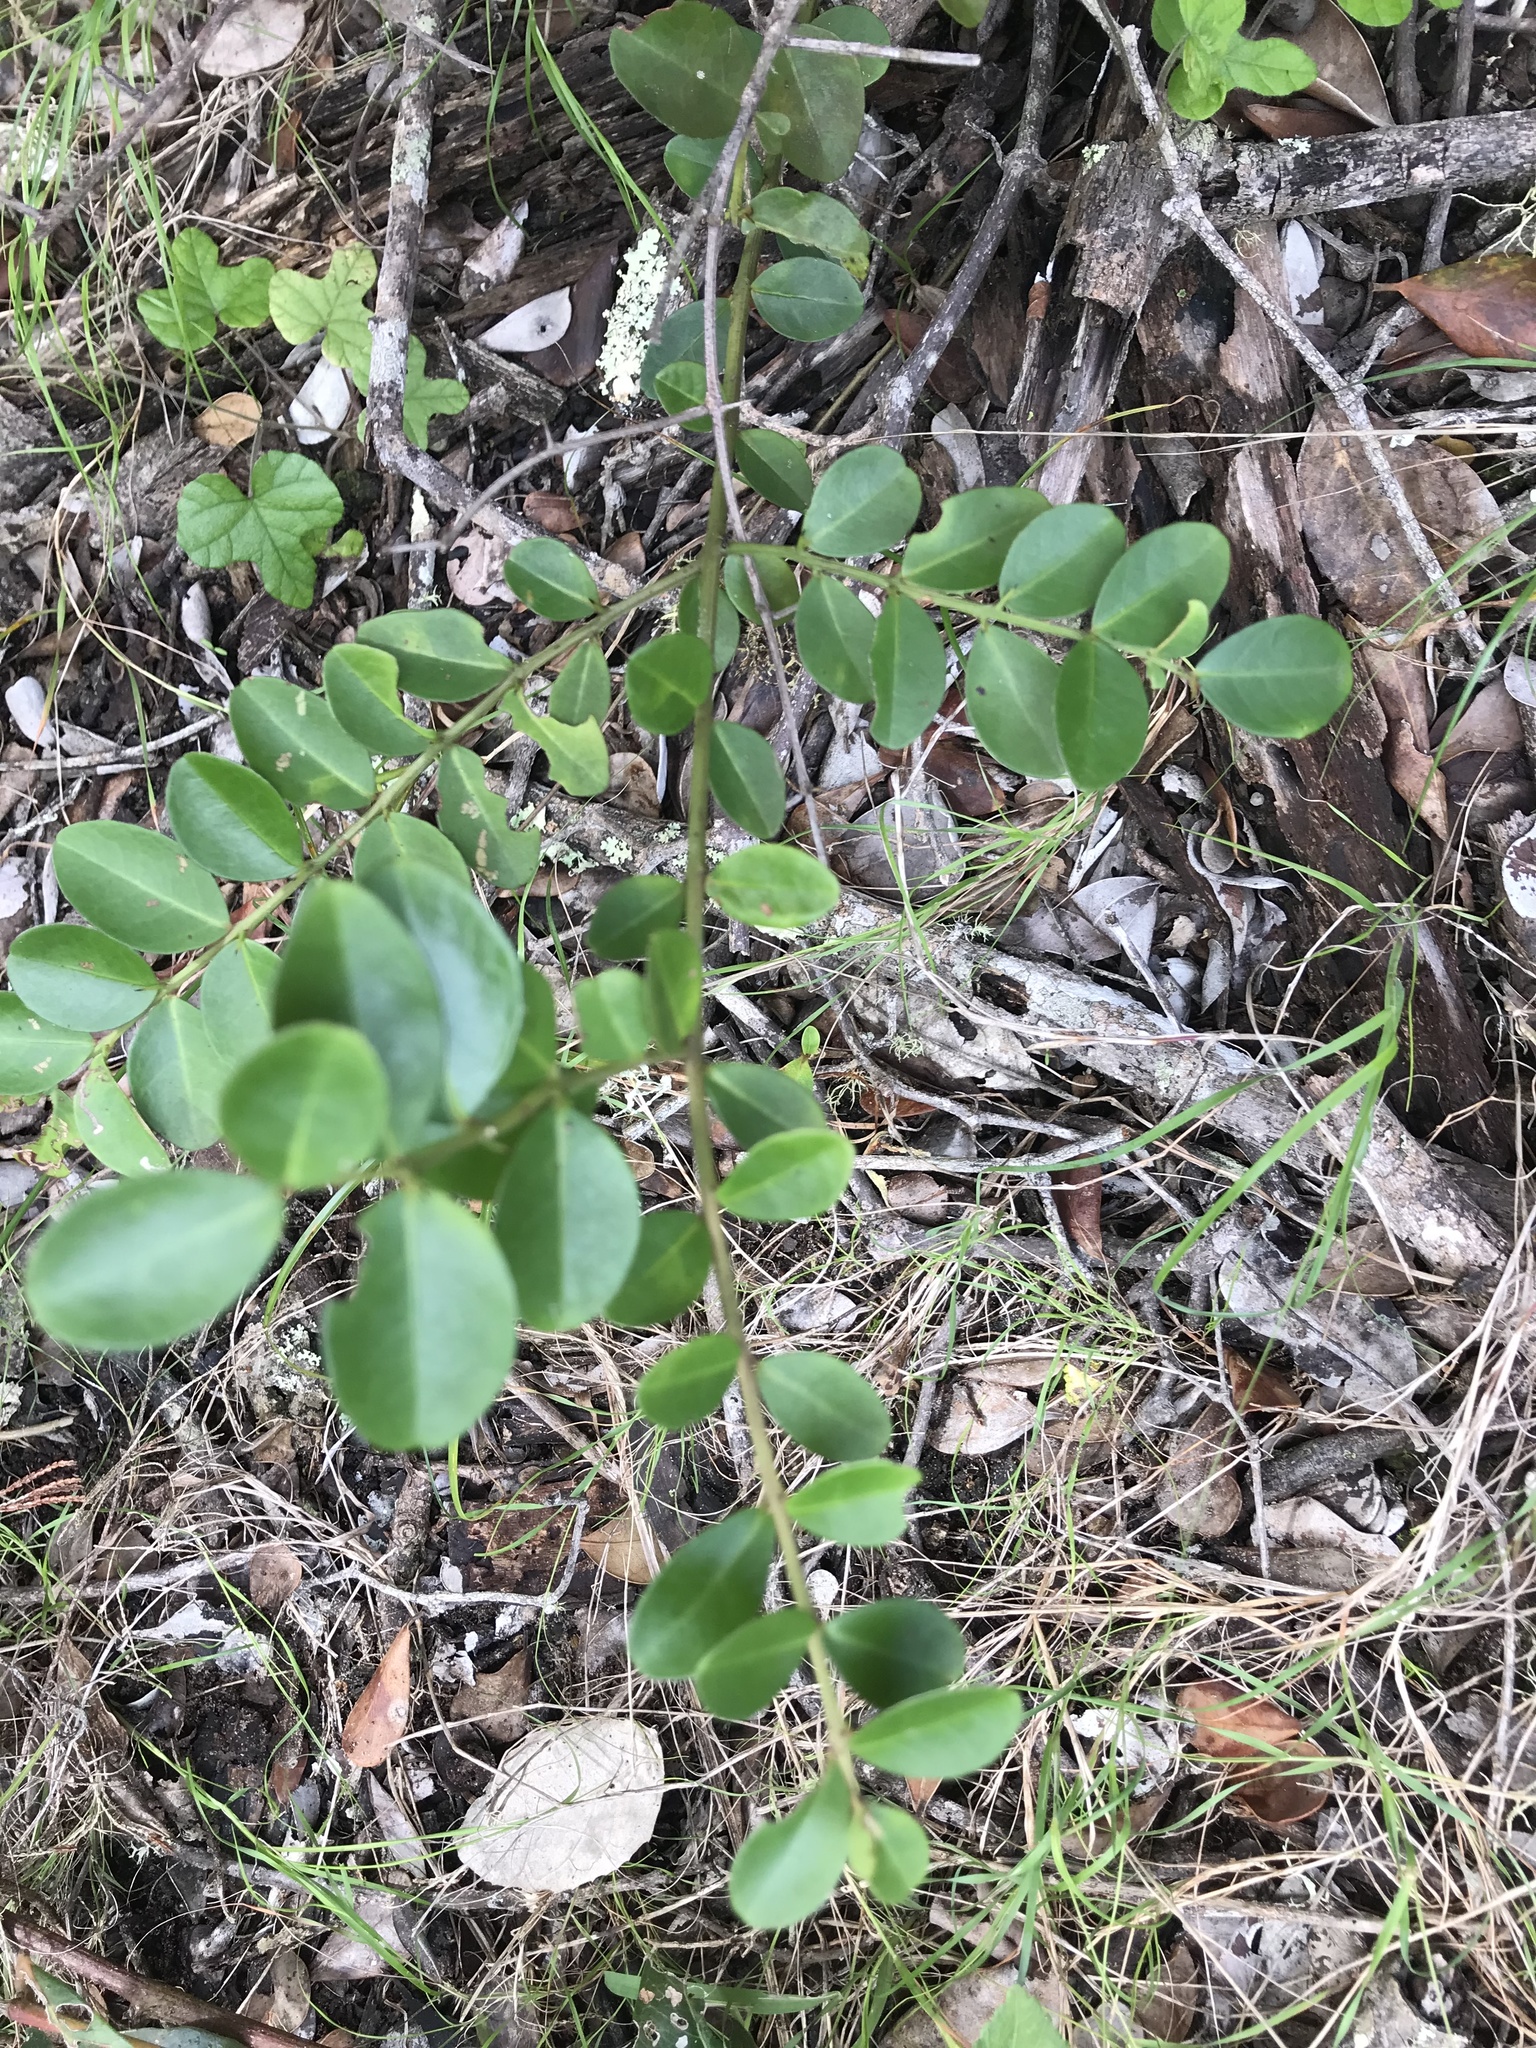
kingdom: Plantae
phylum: Tracheophyta
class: Magnoliopsida
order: Rosales
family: Rhamnaceae
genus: Scutia
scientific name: Scutia myrtina
